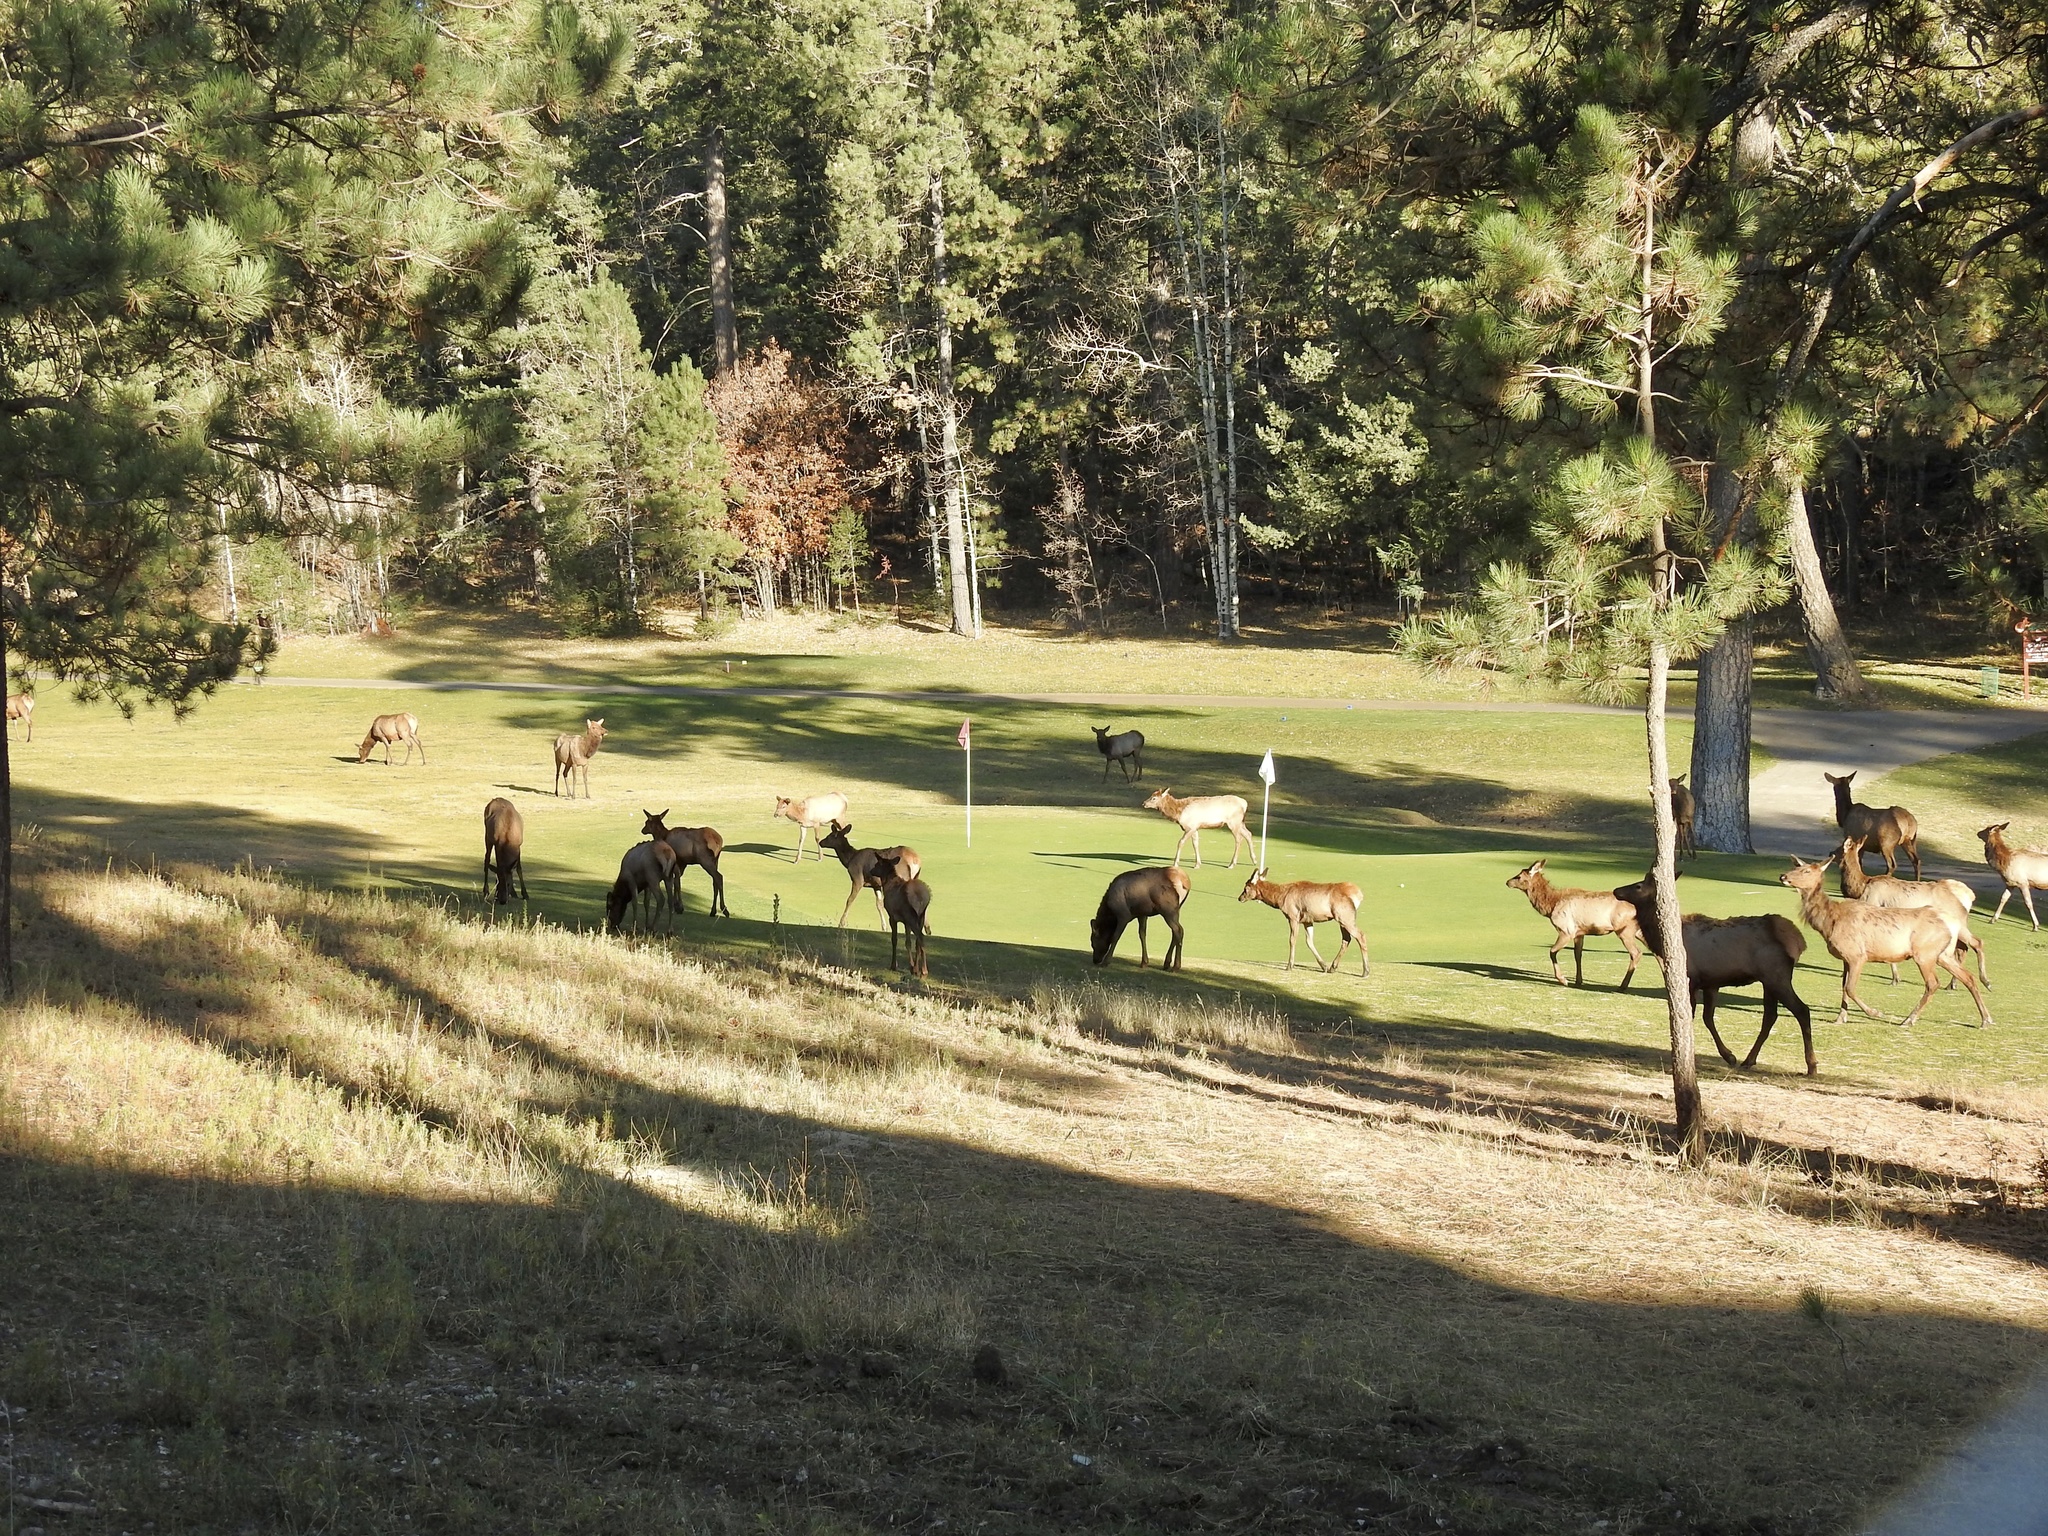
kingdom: Animalia
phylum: Chordata
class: Mammalia
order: Artiodactyla
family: Cervidae
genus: Cervus
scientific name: Cervus elaphus
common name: Red deer
